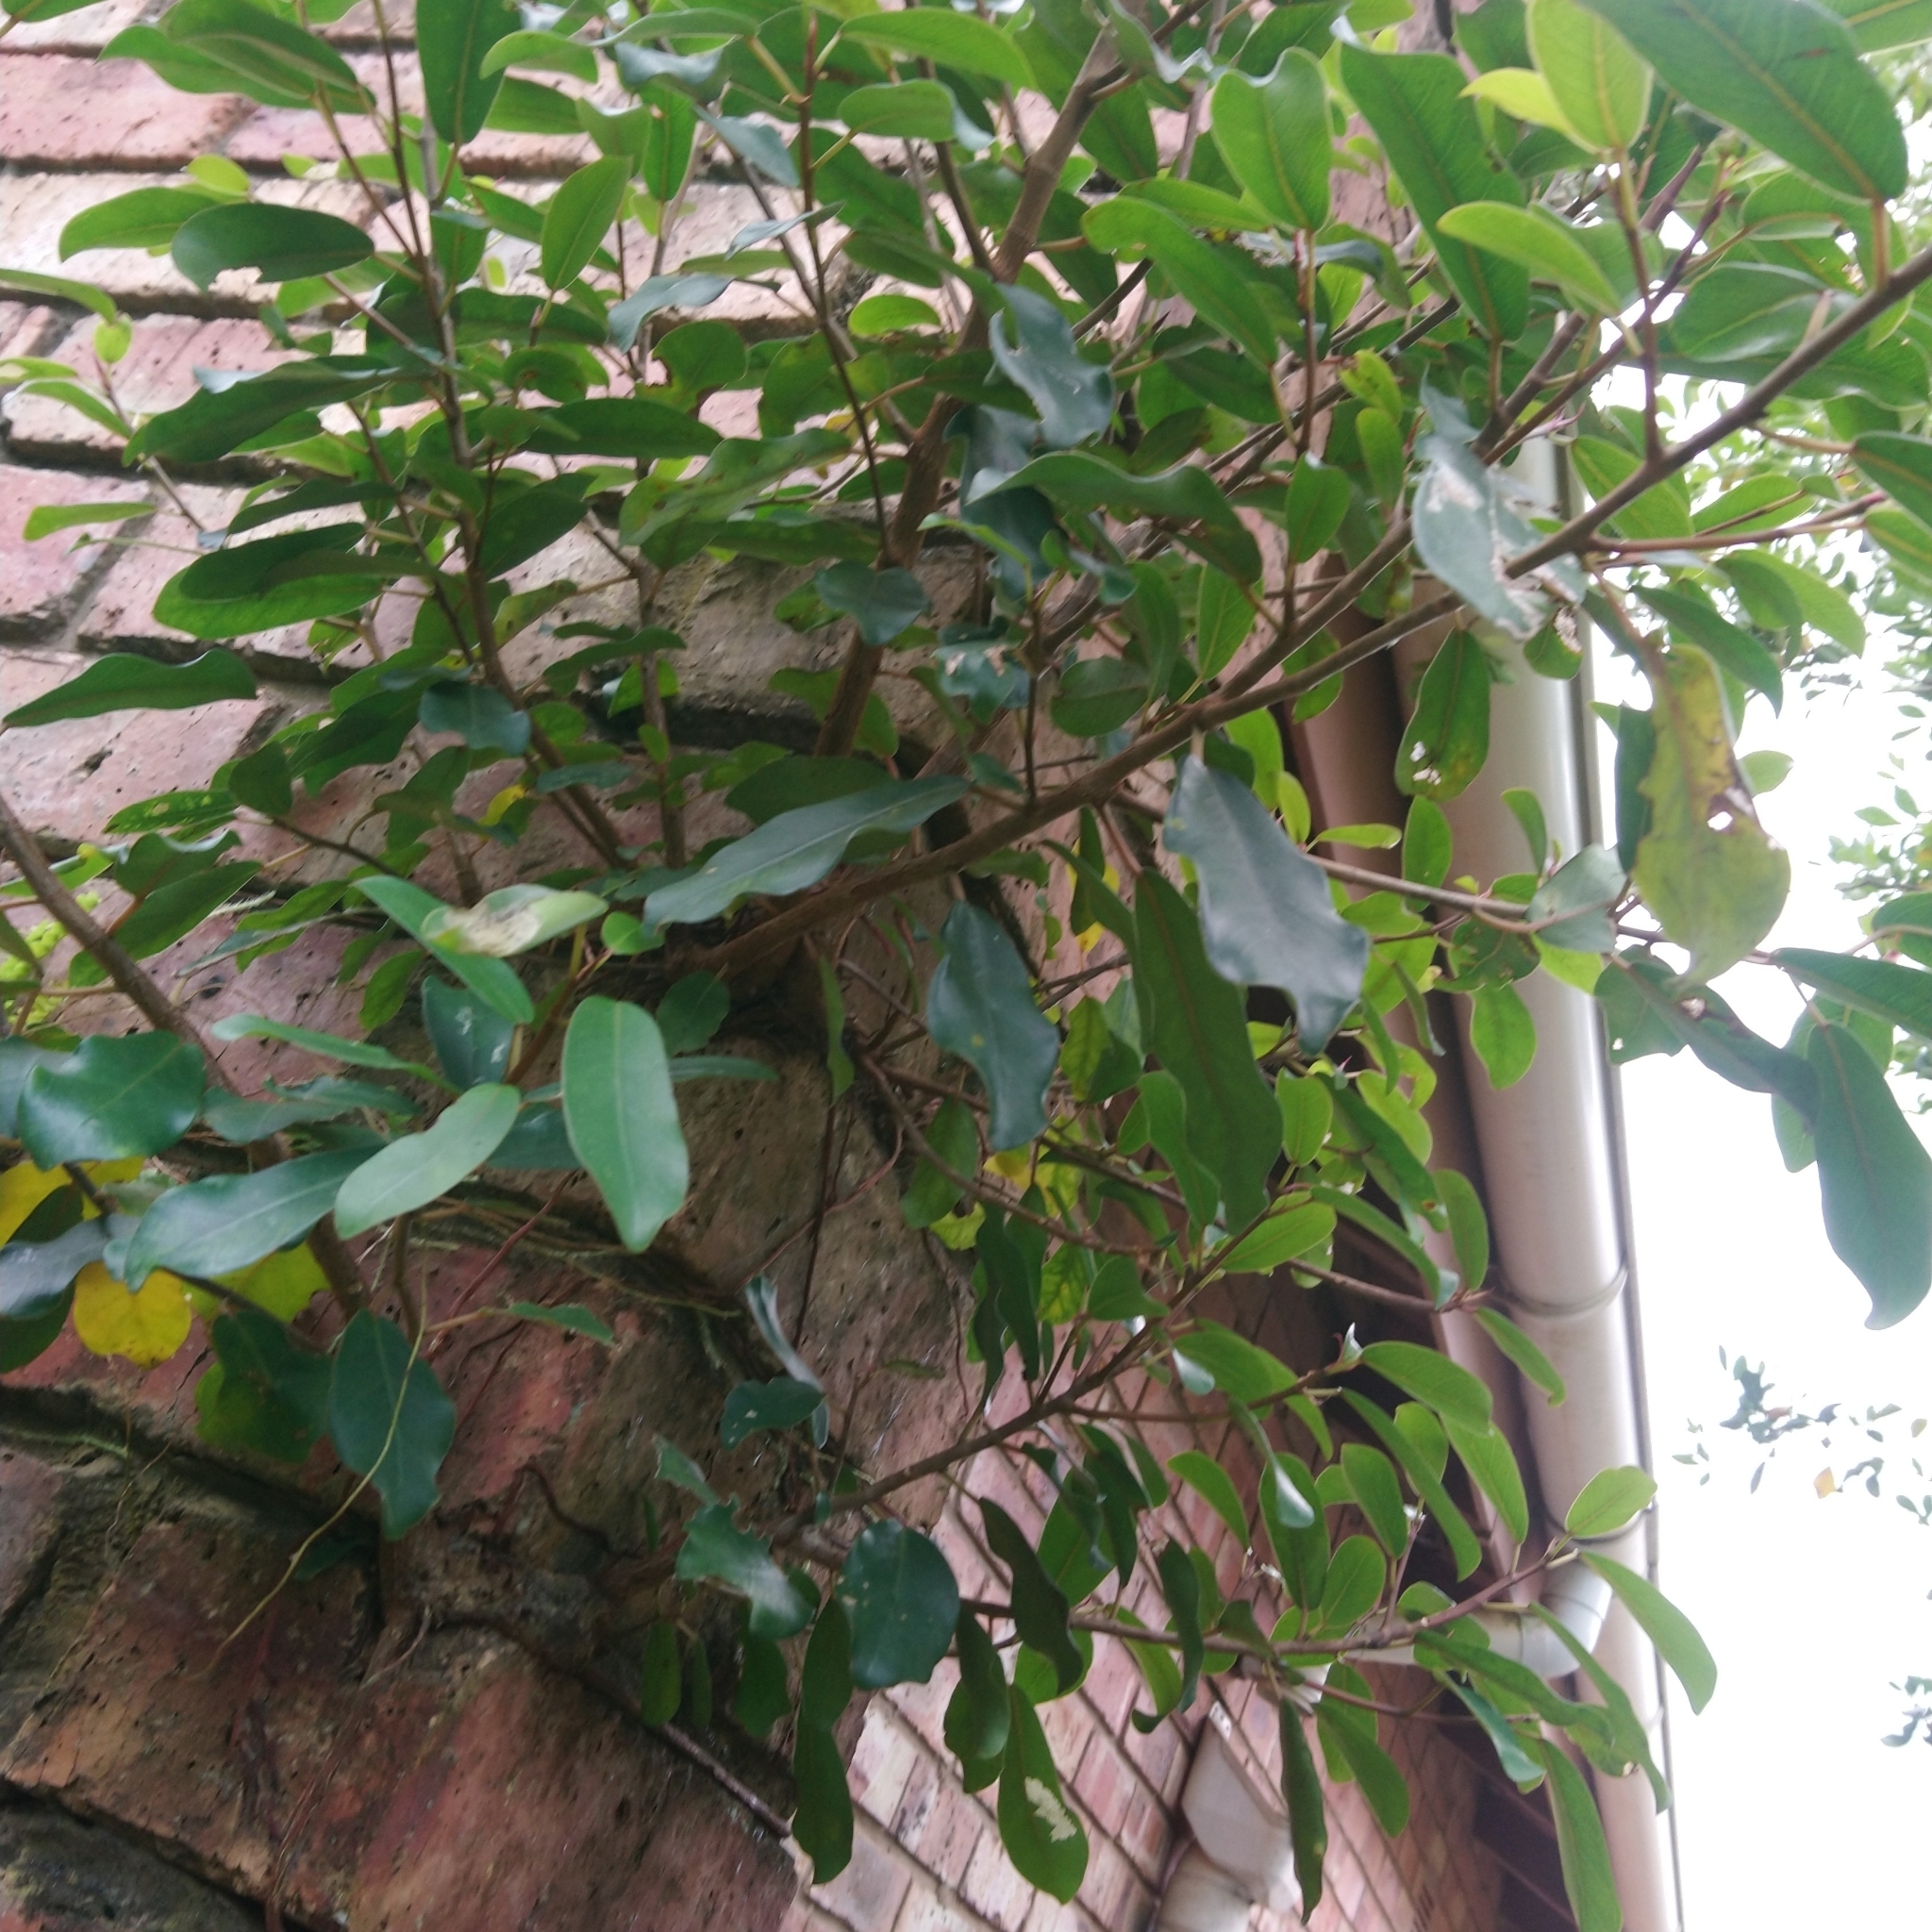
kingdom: Plantae
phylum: Tracheophyta
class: Magnoliopsida
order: Rosales
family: Moraceae
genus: Ficus
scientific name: Ficus thonningii
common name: Fig
